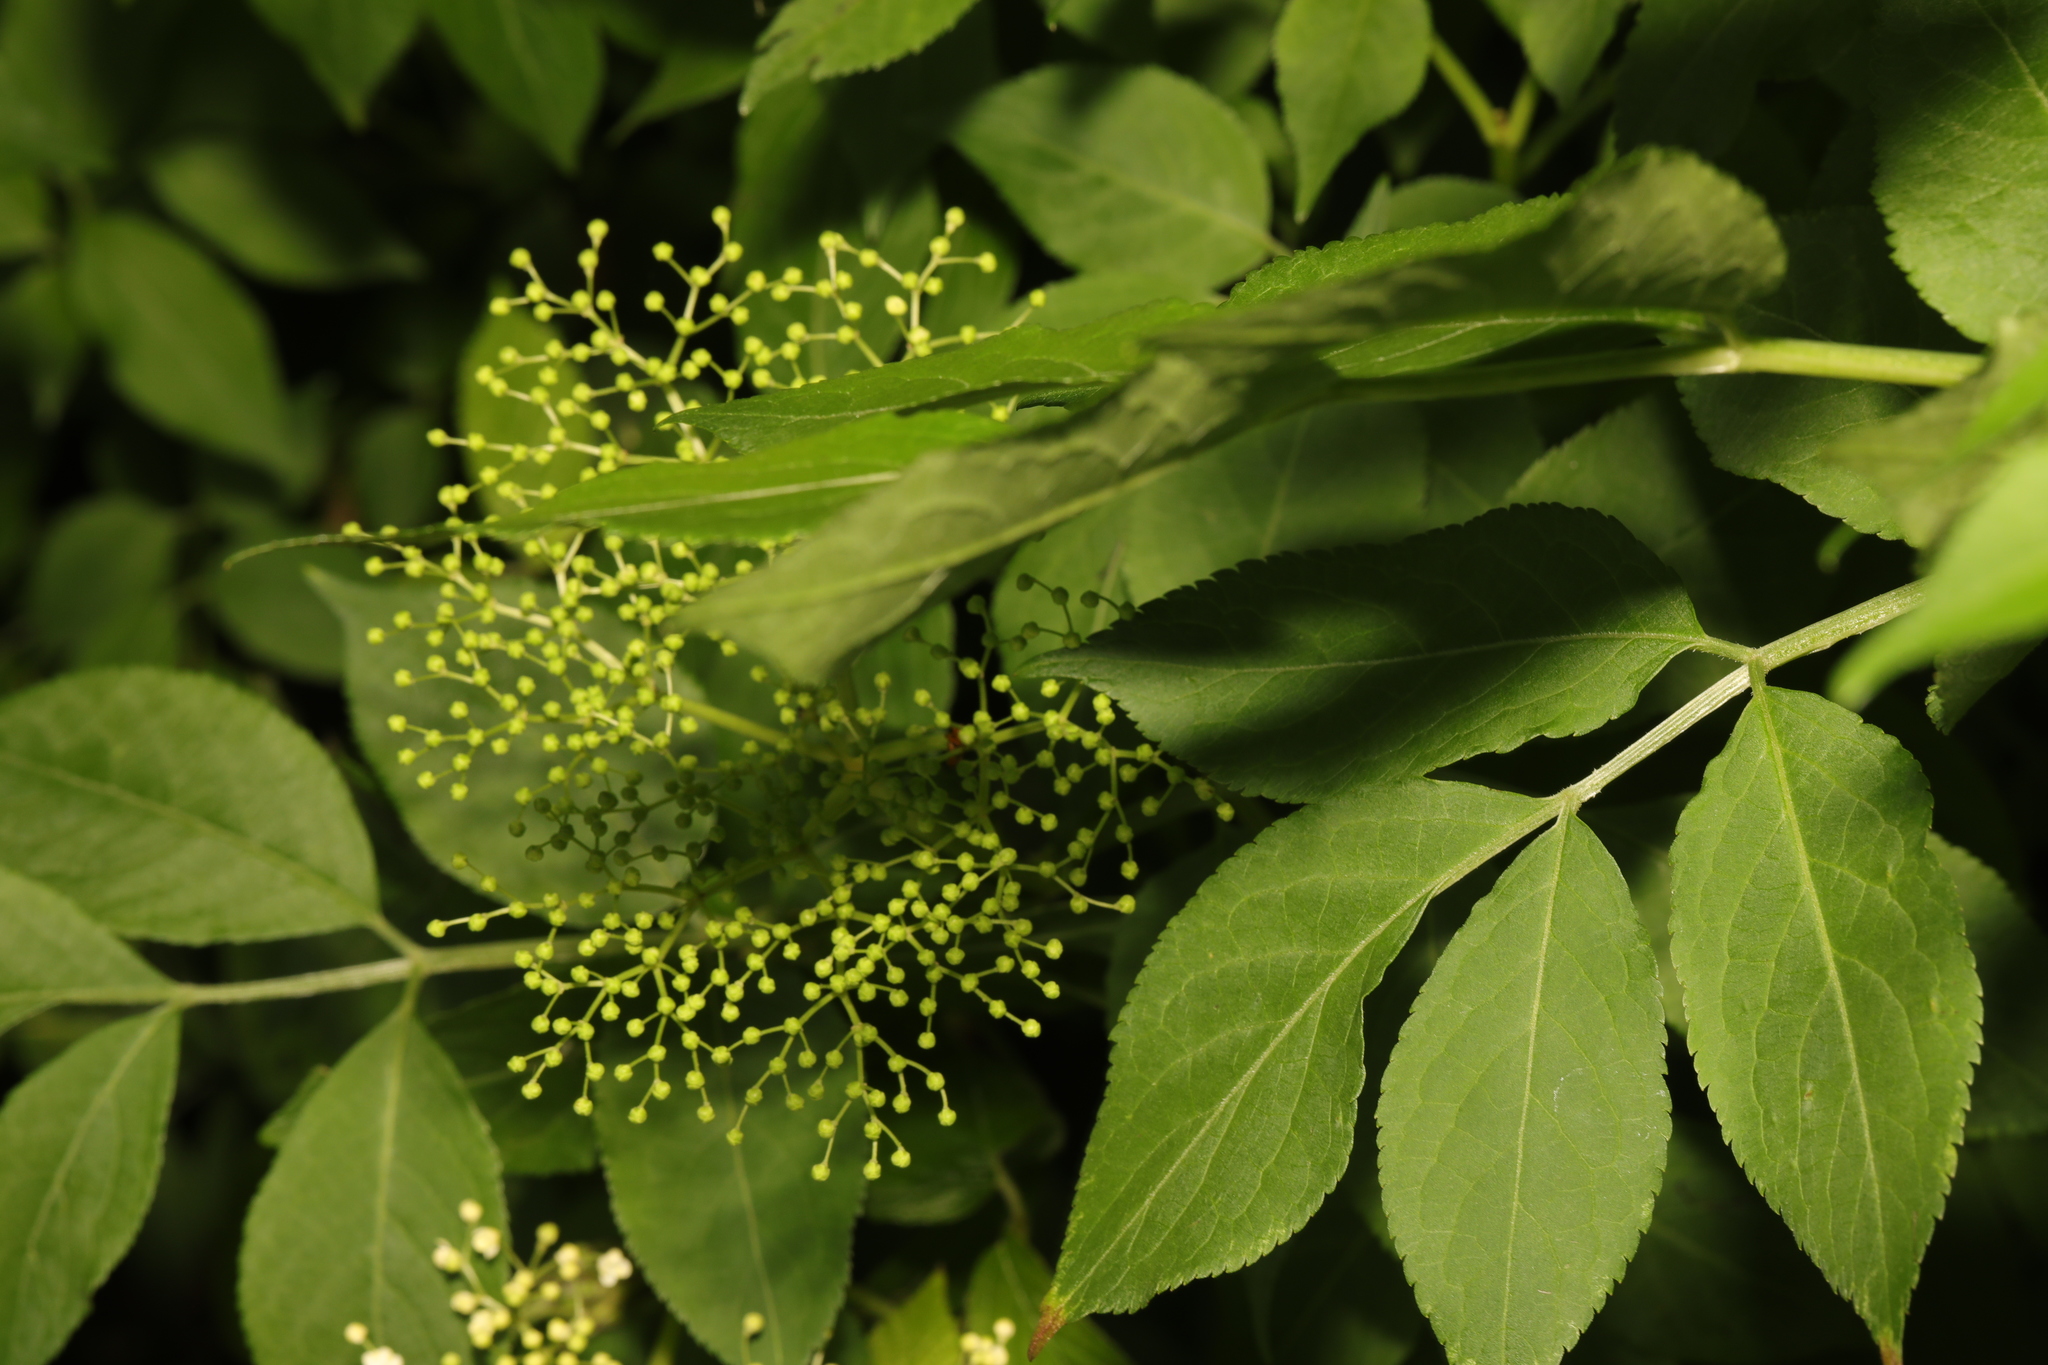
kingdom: Plantae
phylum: Tracheophyta
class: Magnoliopsida
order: Dipsacales
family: Viburnaceae
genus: Sambucus
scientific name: Sambucus nigra
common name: Elder
